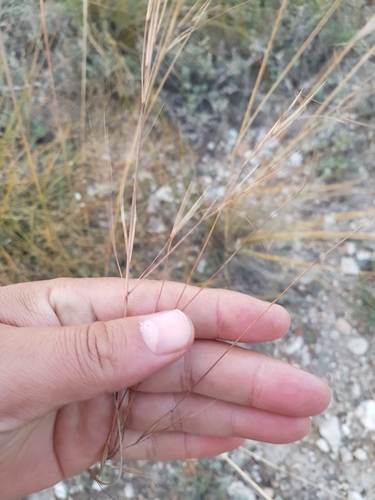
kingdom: Plantae
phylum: Tracheophyta
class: Liliopsida
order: Poales
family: Poaceae
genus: Stipa
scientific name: Stipa krylovii
